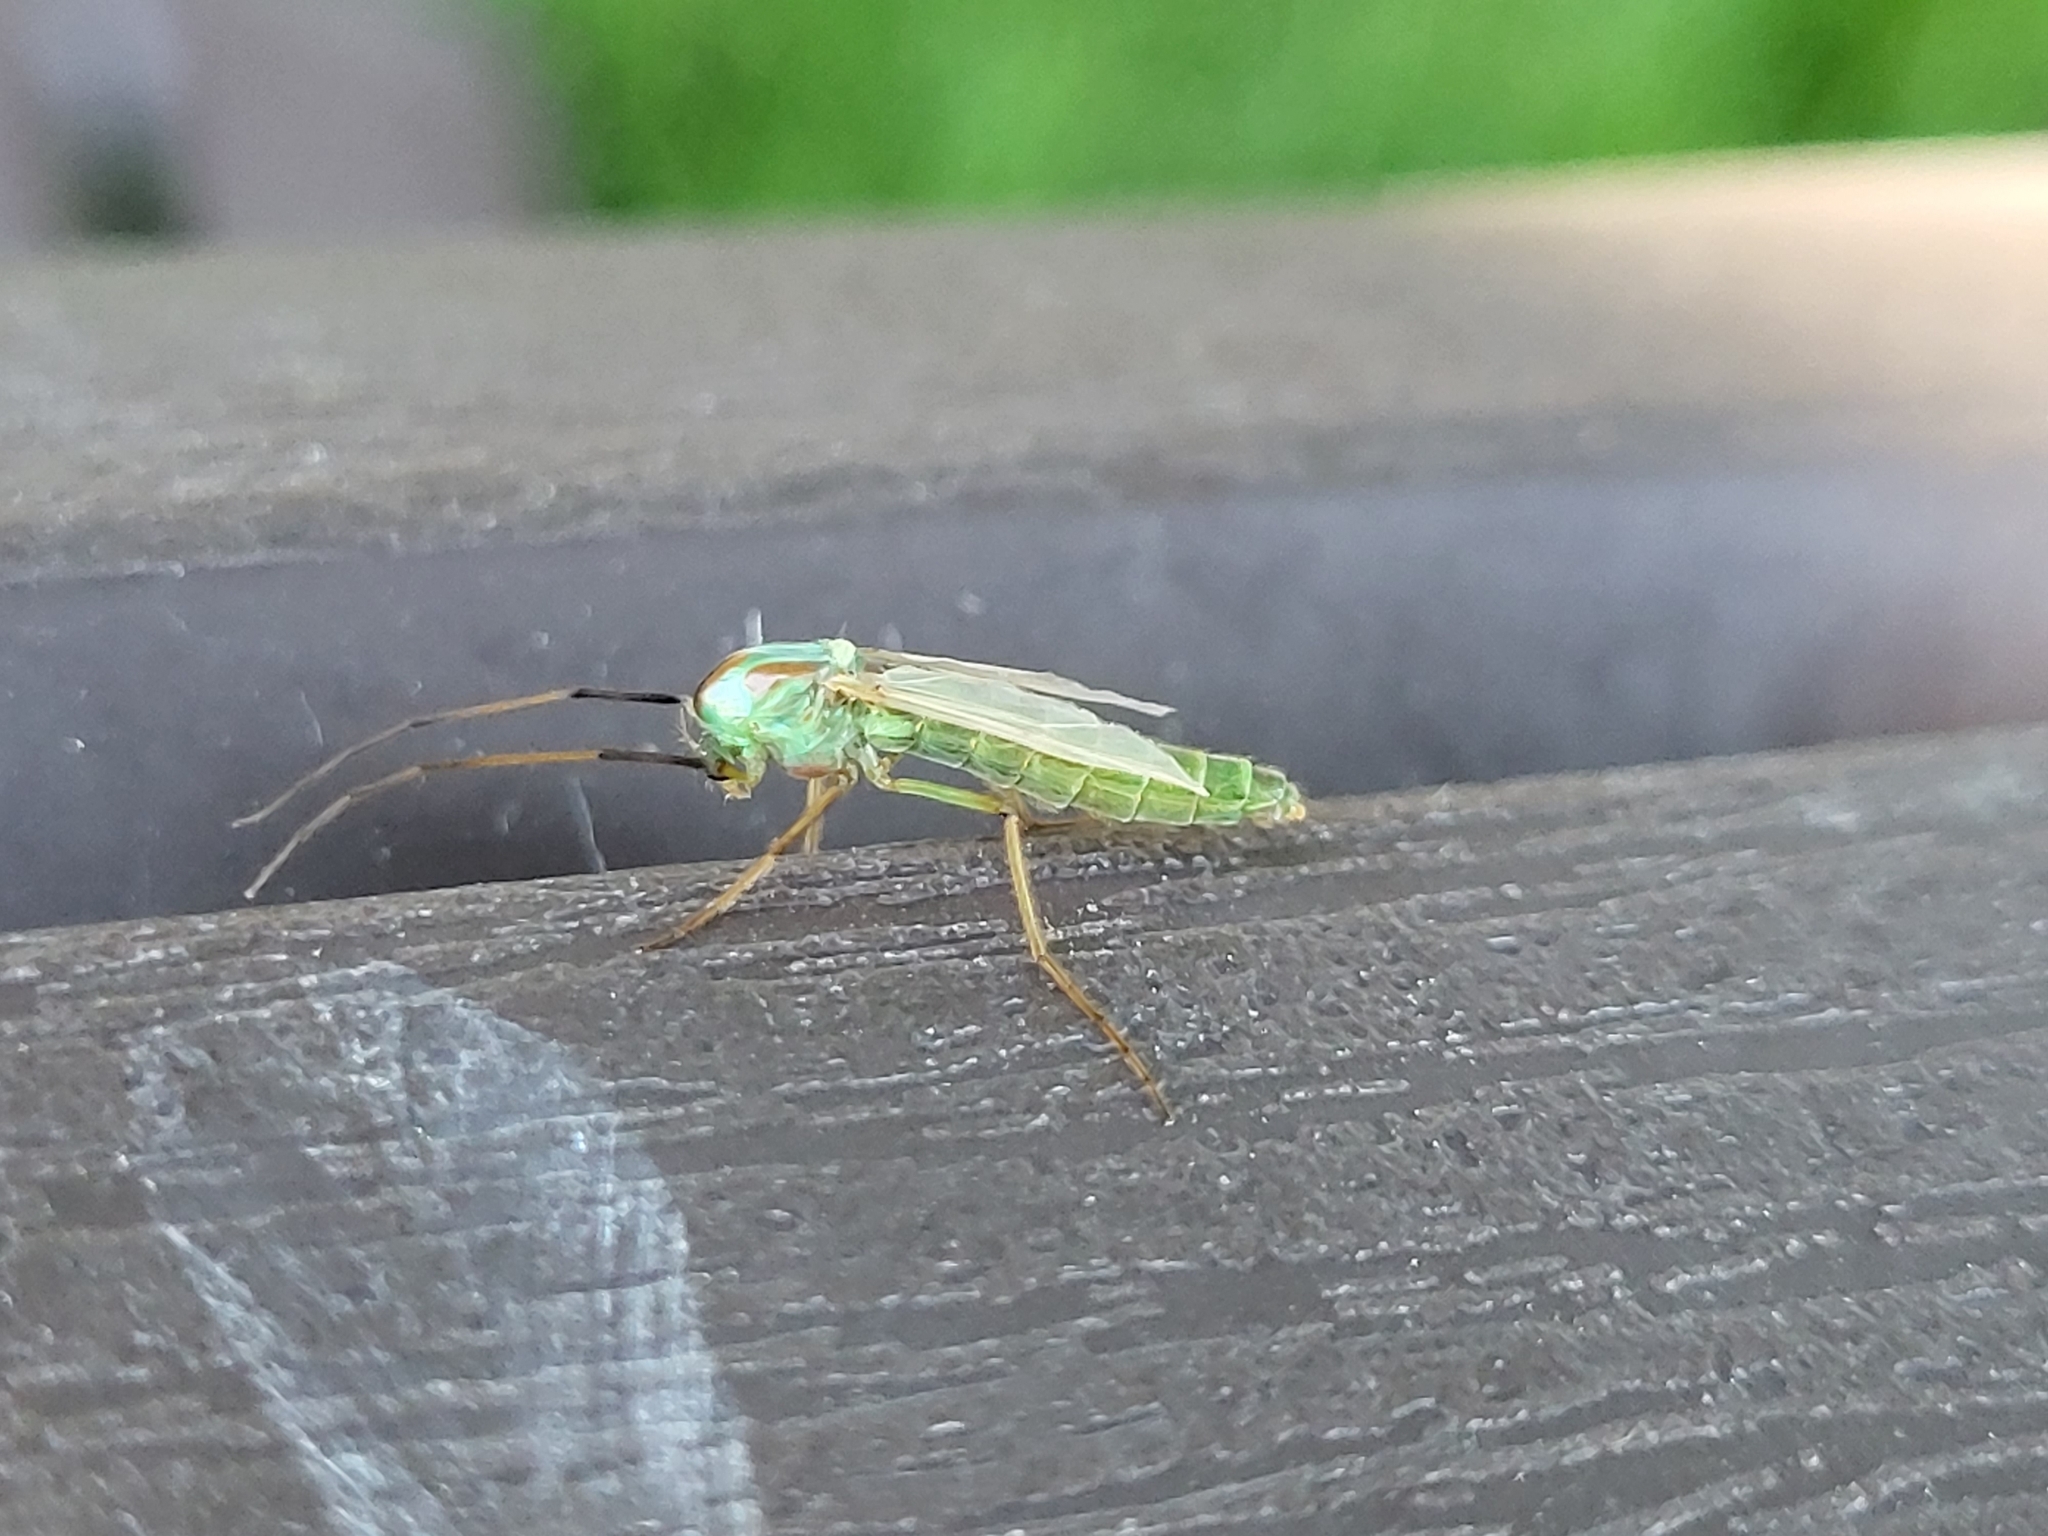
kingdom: Animalia
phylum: Arthropoda
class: Insecta
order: Diptera
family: Chironomidae
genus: Axarus
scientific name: Axarus
